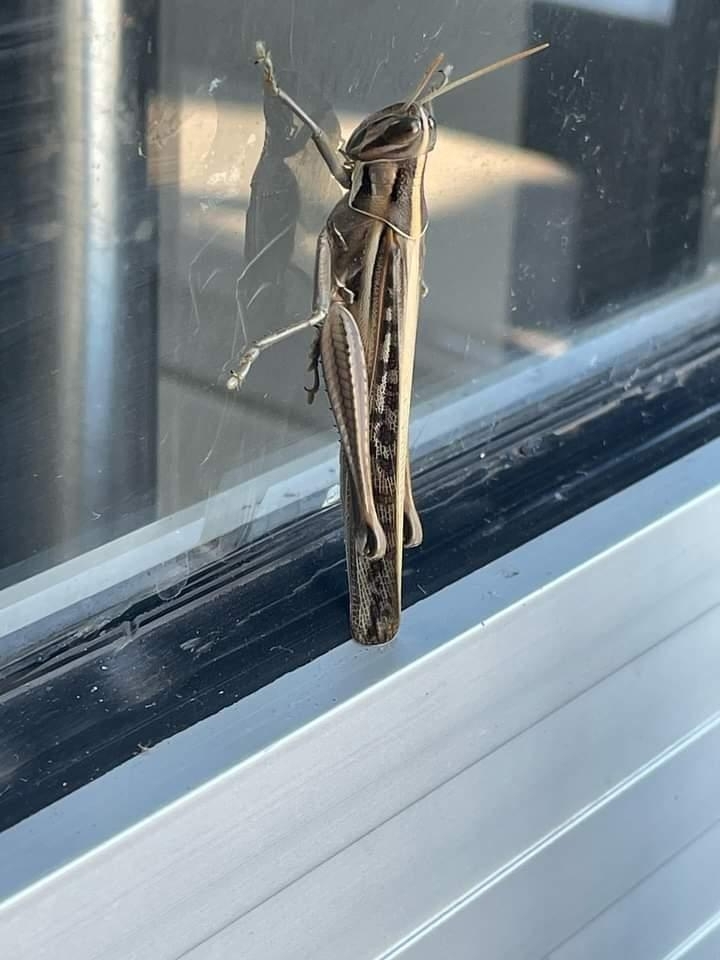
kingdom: Animalia
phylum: Arthropoda
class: Insecta
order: Orthoptera
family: Acrididae
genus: Austracris
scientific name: Austracris guttulosa
